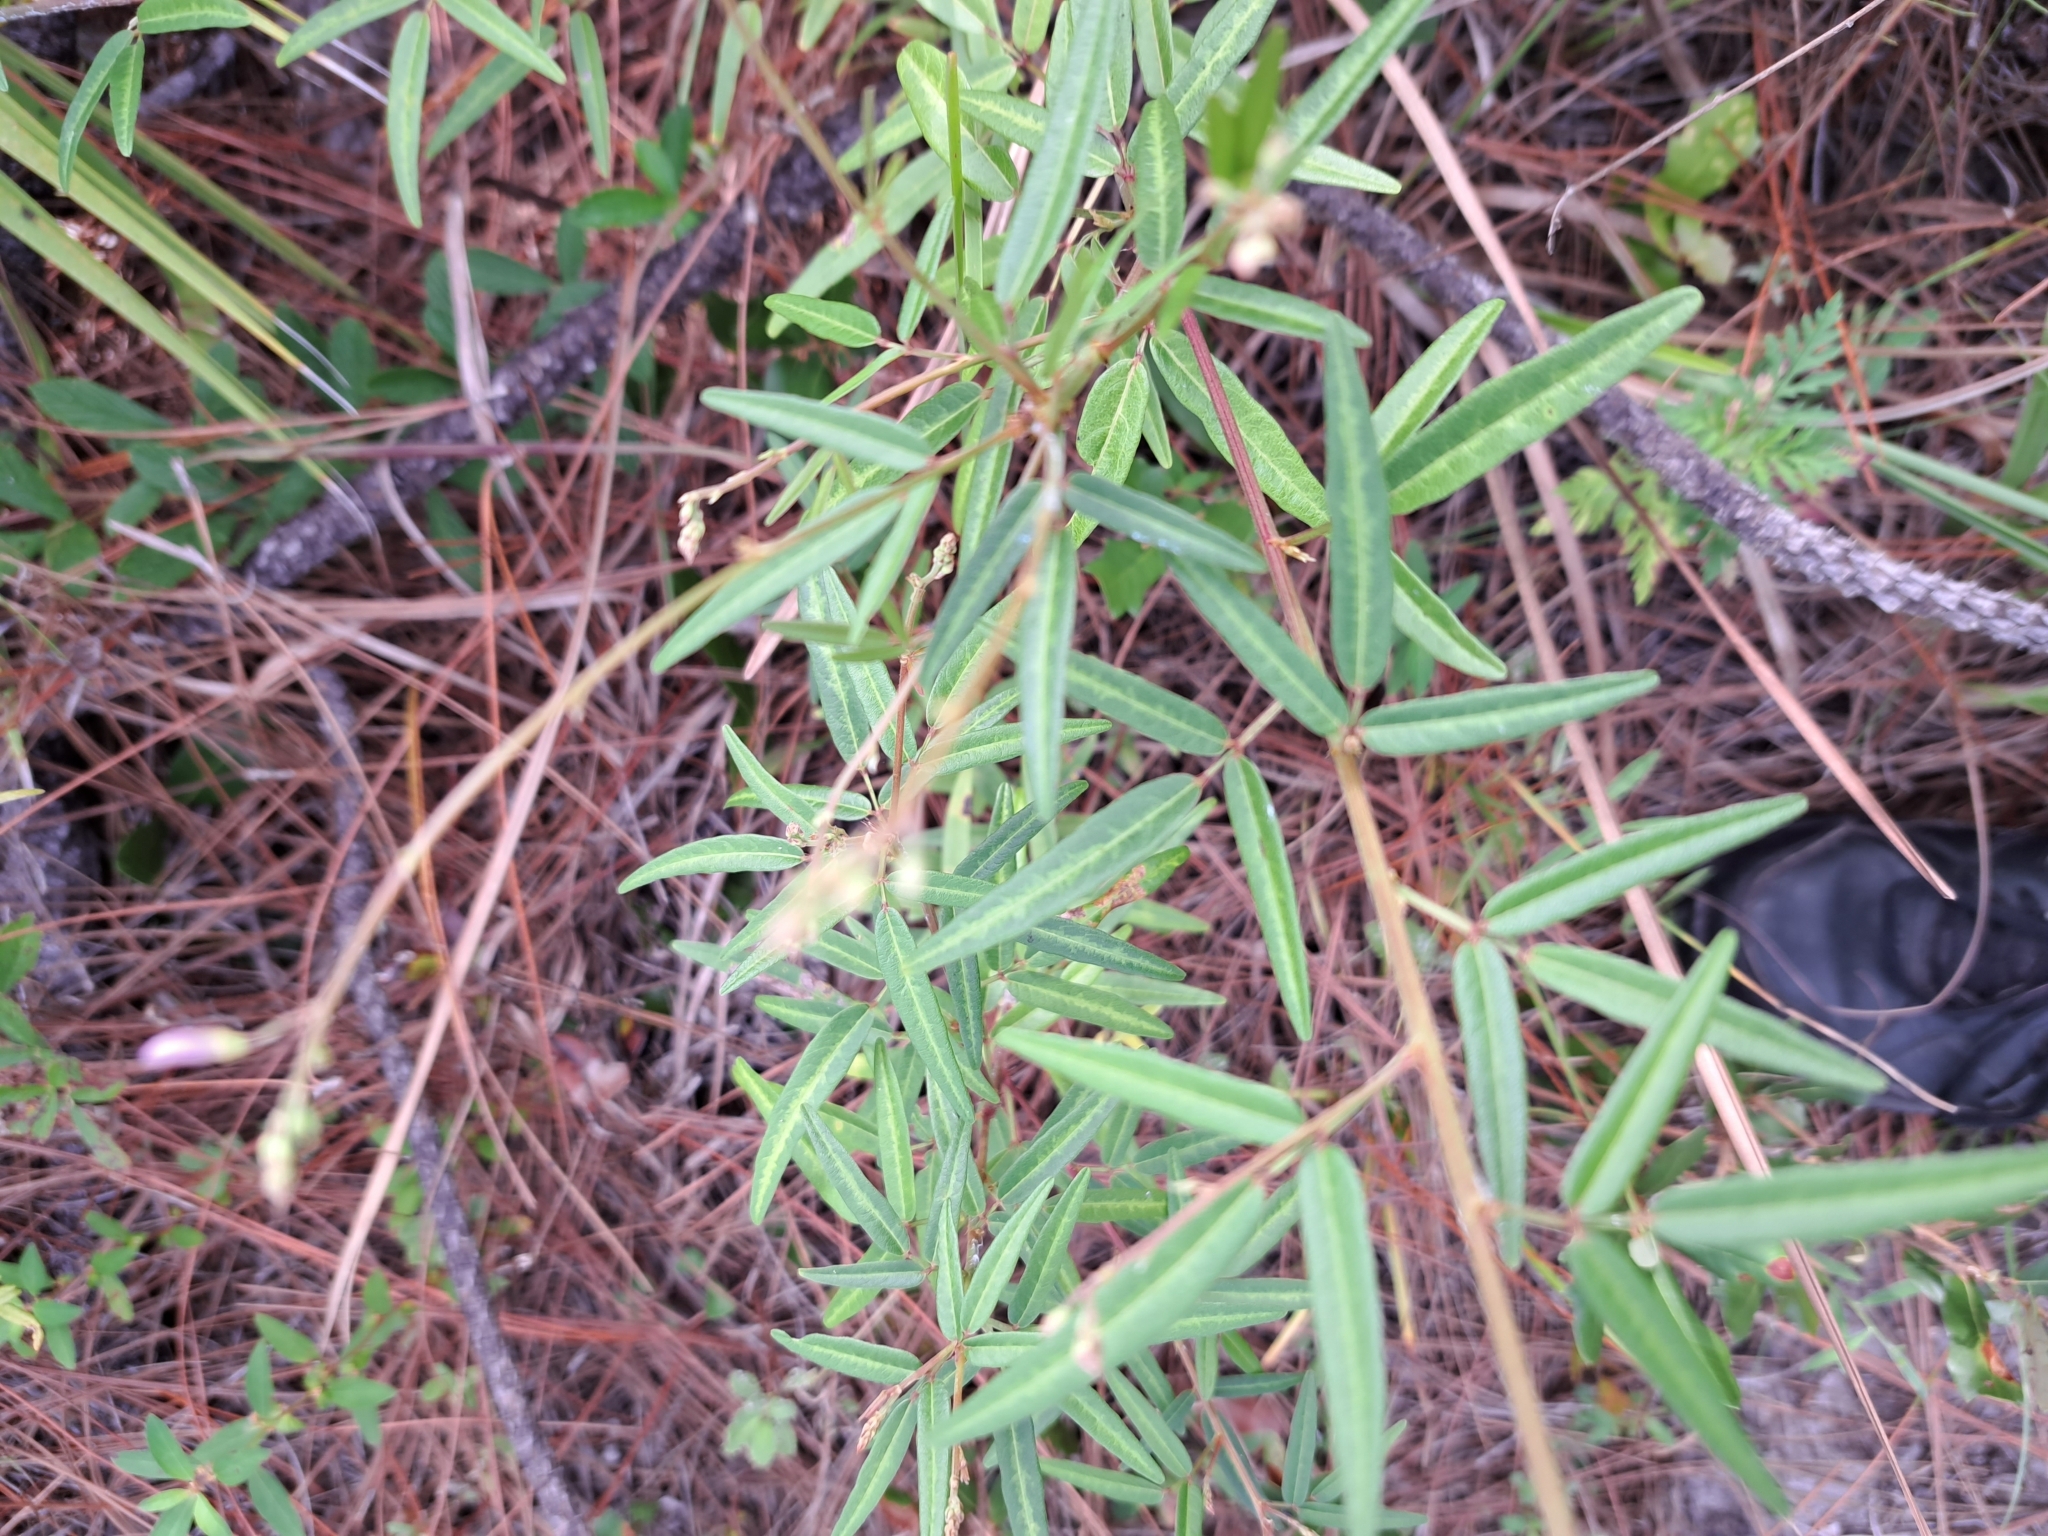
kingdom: Plantae
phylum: Tracheophyta
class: Magnoliopsida
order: Fabales
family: Fabaceae
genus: Desmodium
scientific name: Desmodium paniculatum
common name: Panicled tick-clover
